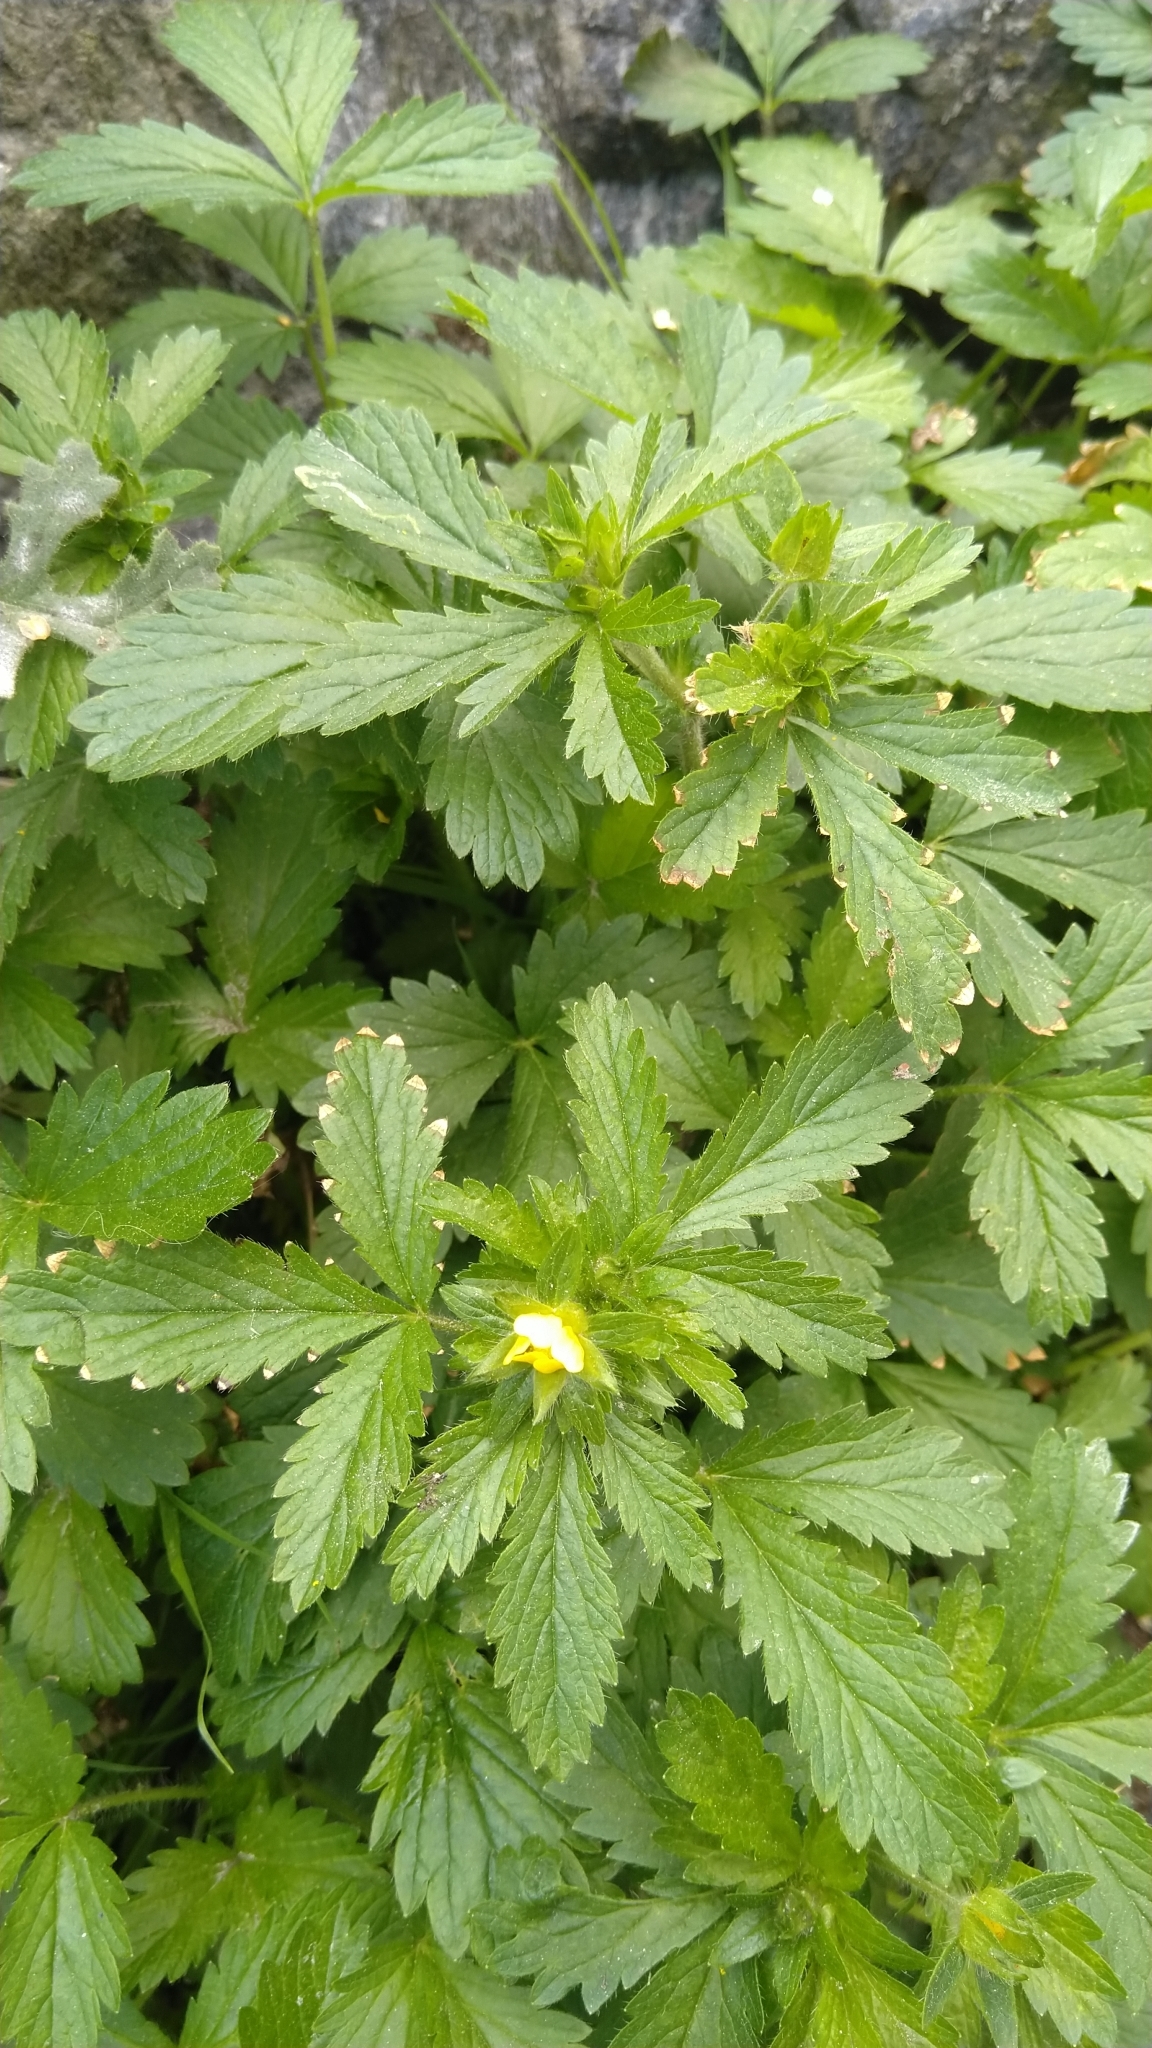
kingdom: Plantae
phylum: Tracheophyta
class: Magnoliopsida
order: Rosales
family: Rosaceae
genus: Potentilla
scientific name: Potentilla norvegica
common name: Ternate-leaved cinquefoil
